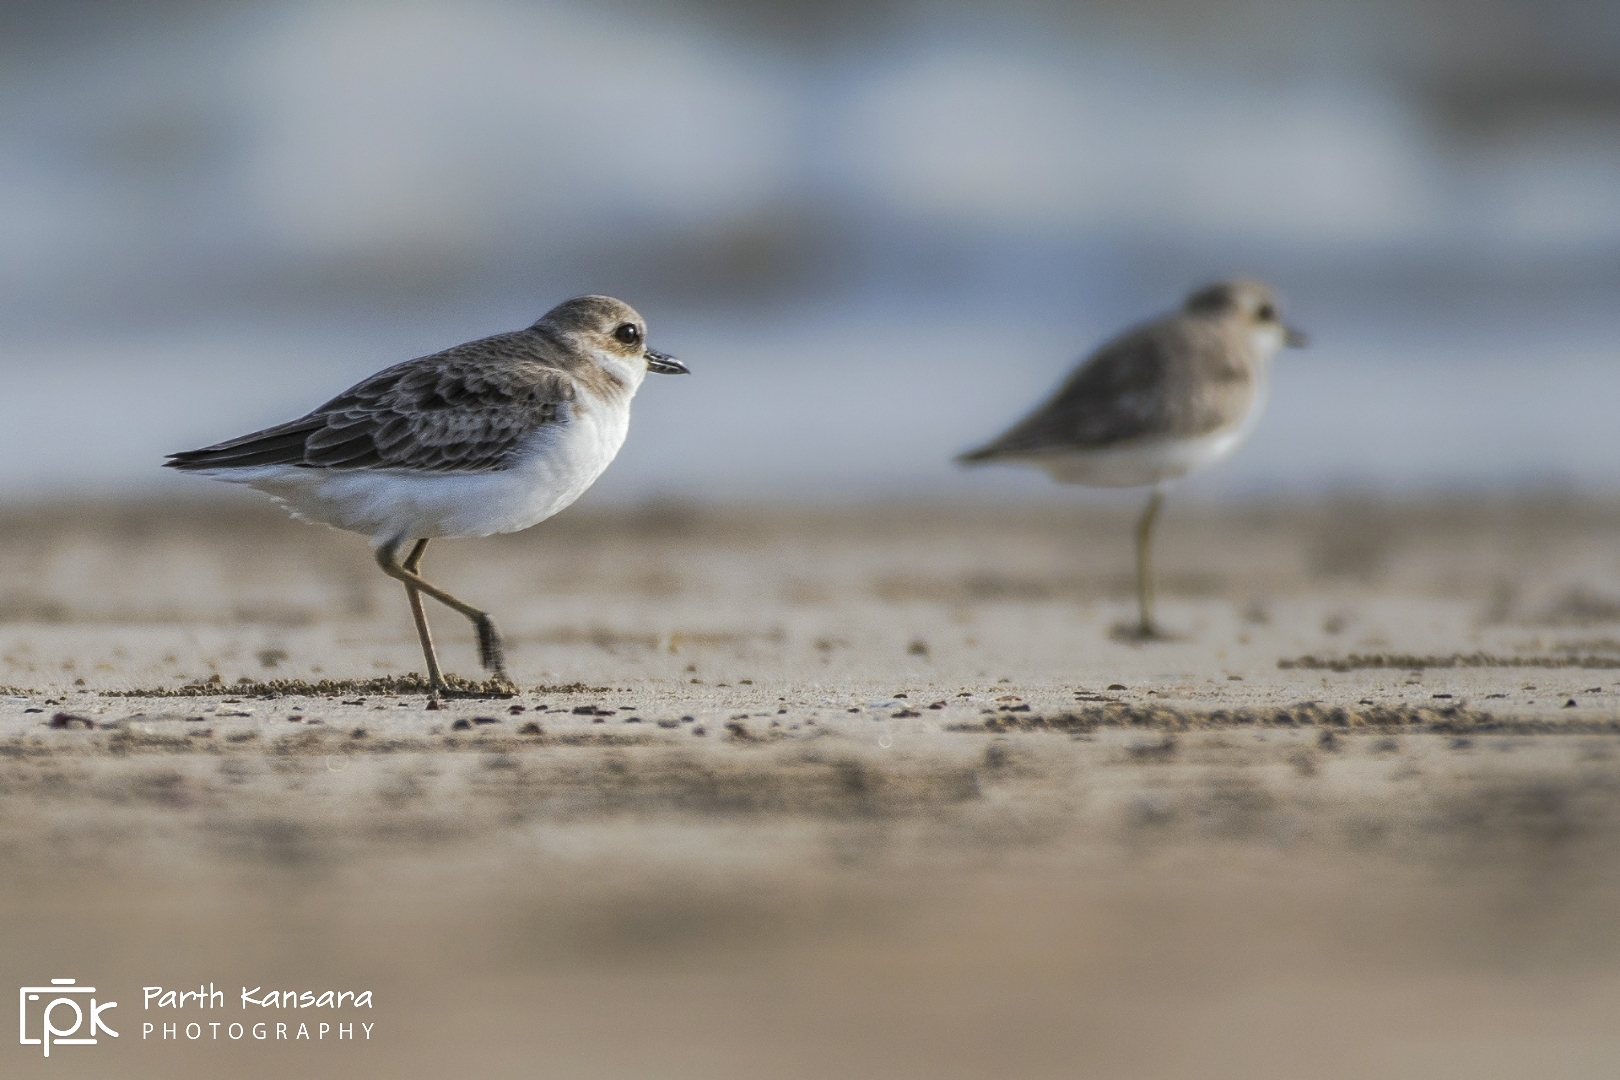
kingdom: Animalia
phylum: Chordata
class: Aves
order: Charadriiformes
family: Charadriidae
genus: Charadrius
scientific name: Charadrius alexandrinus
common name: Kentish plover
